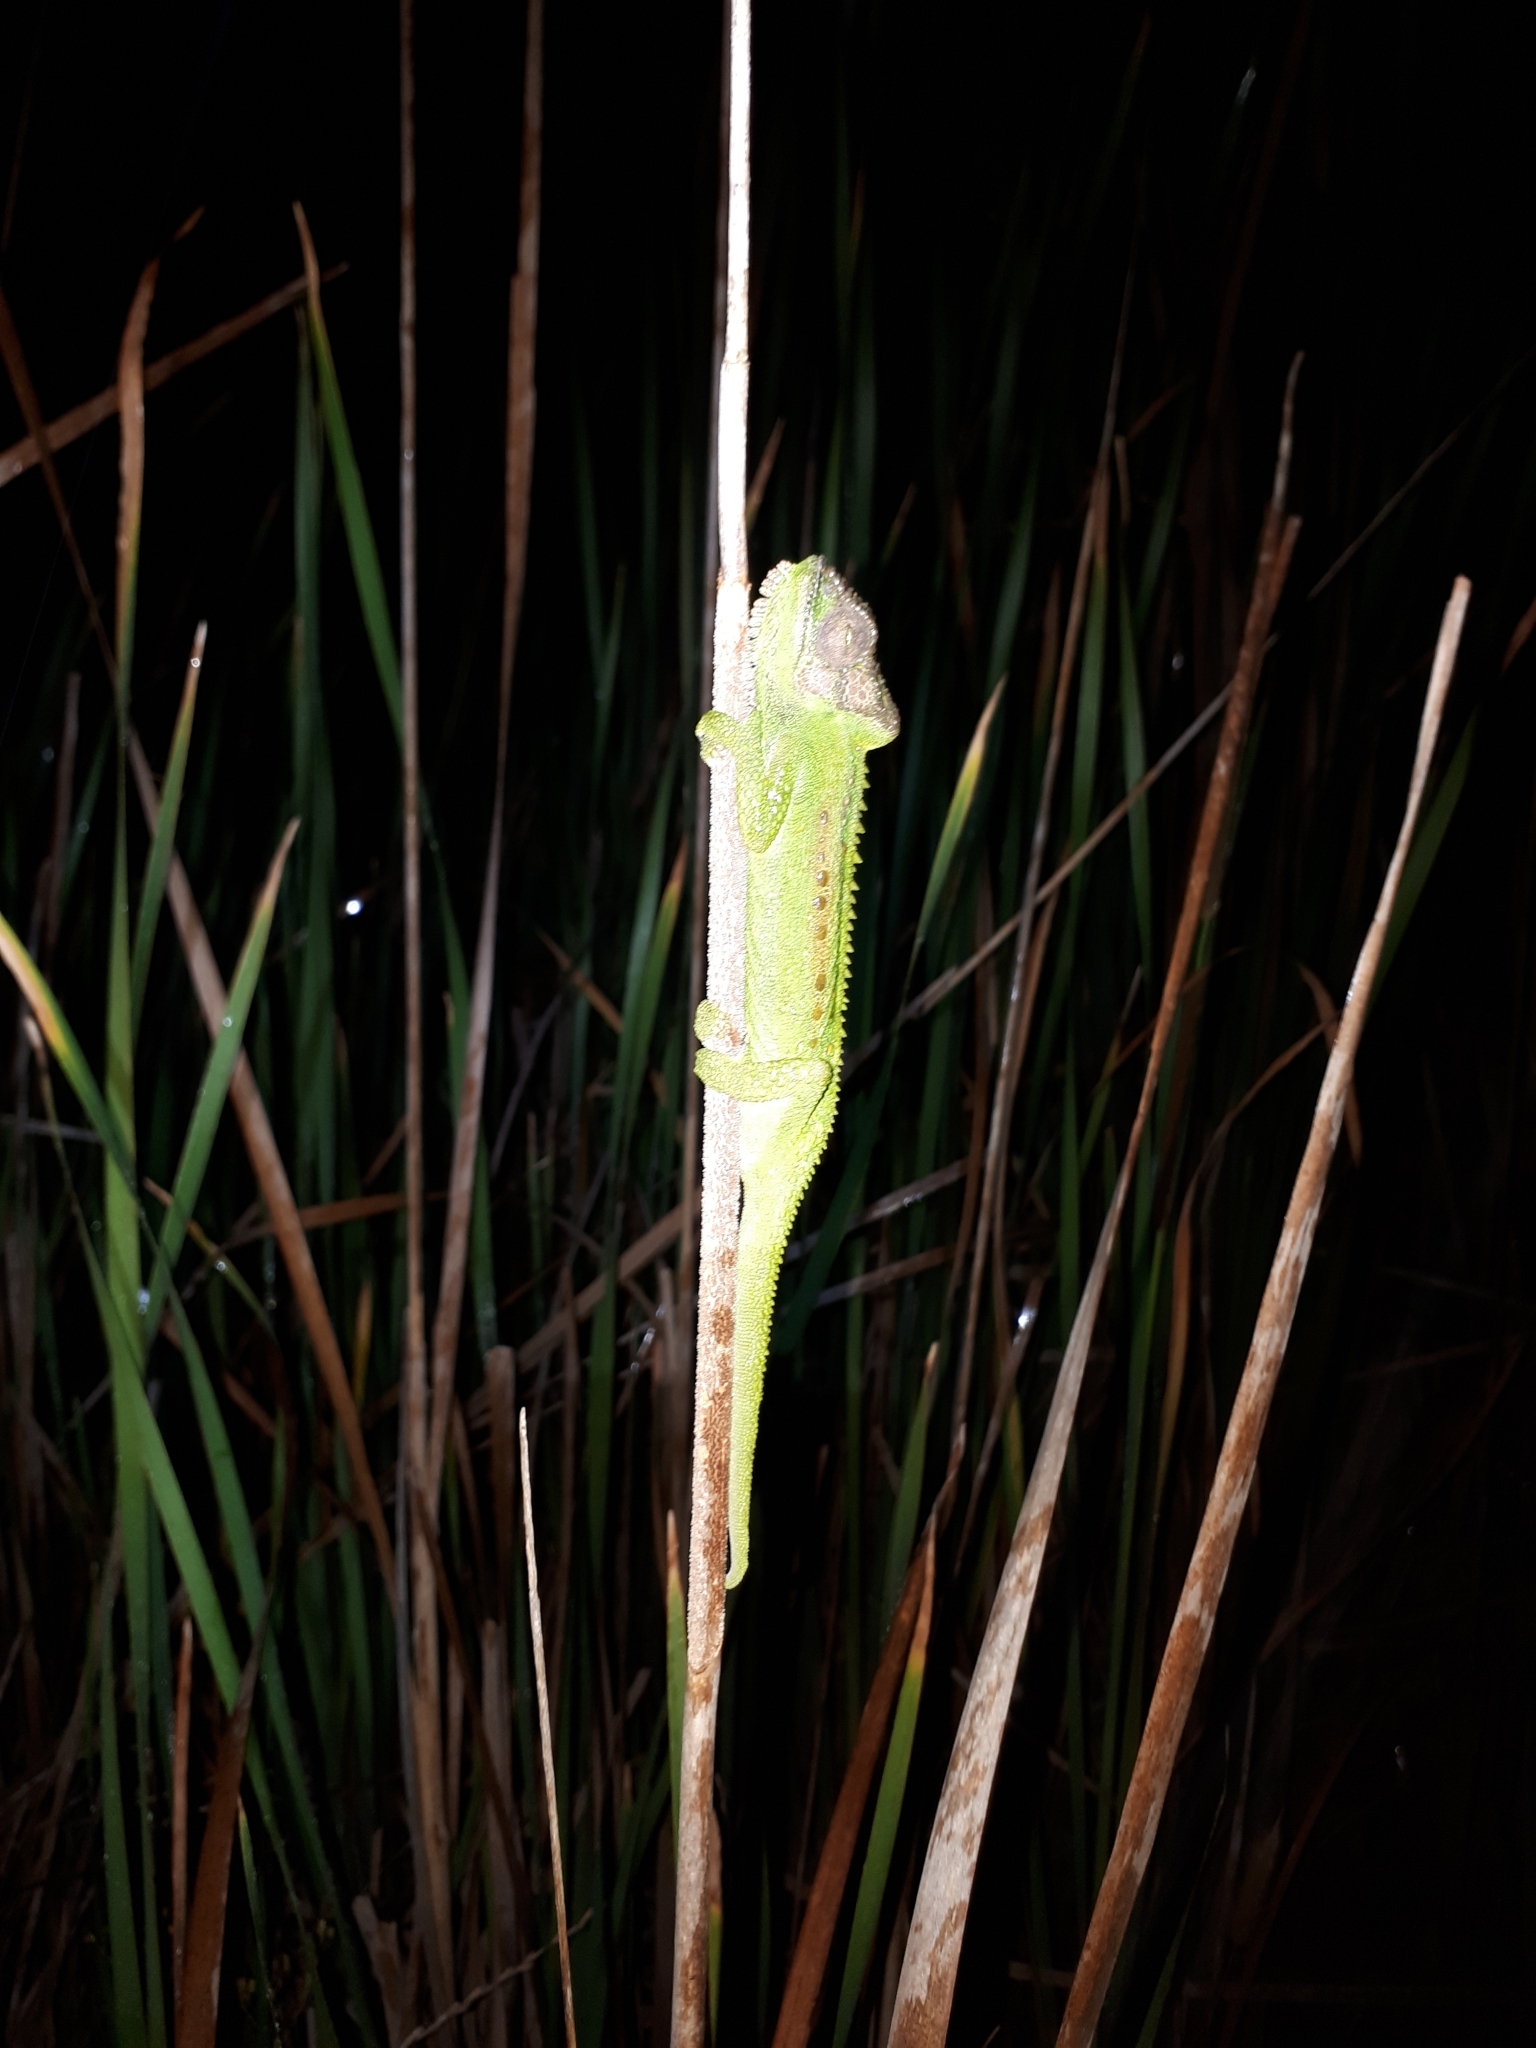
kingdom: Animalia
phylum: Chordata
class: Squamata
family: Chamaeleonidae
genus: Bradypodion
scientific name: Bradypodion pumilum
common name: Cape dwarf chameleon
